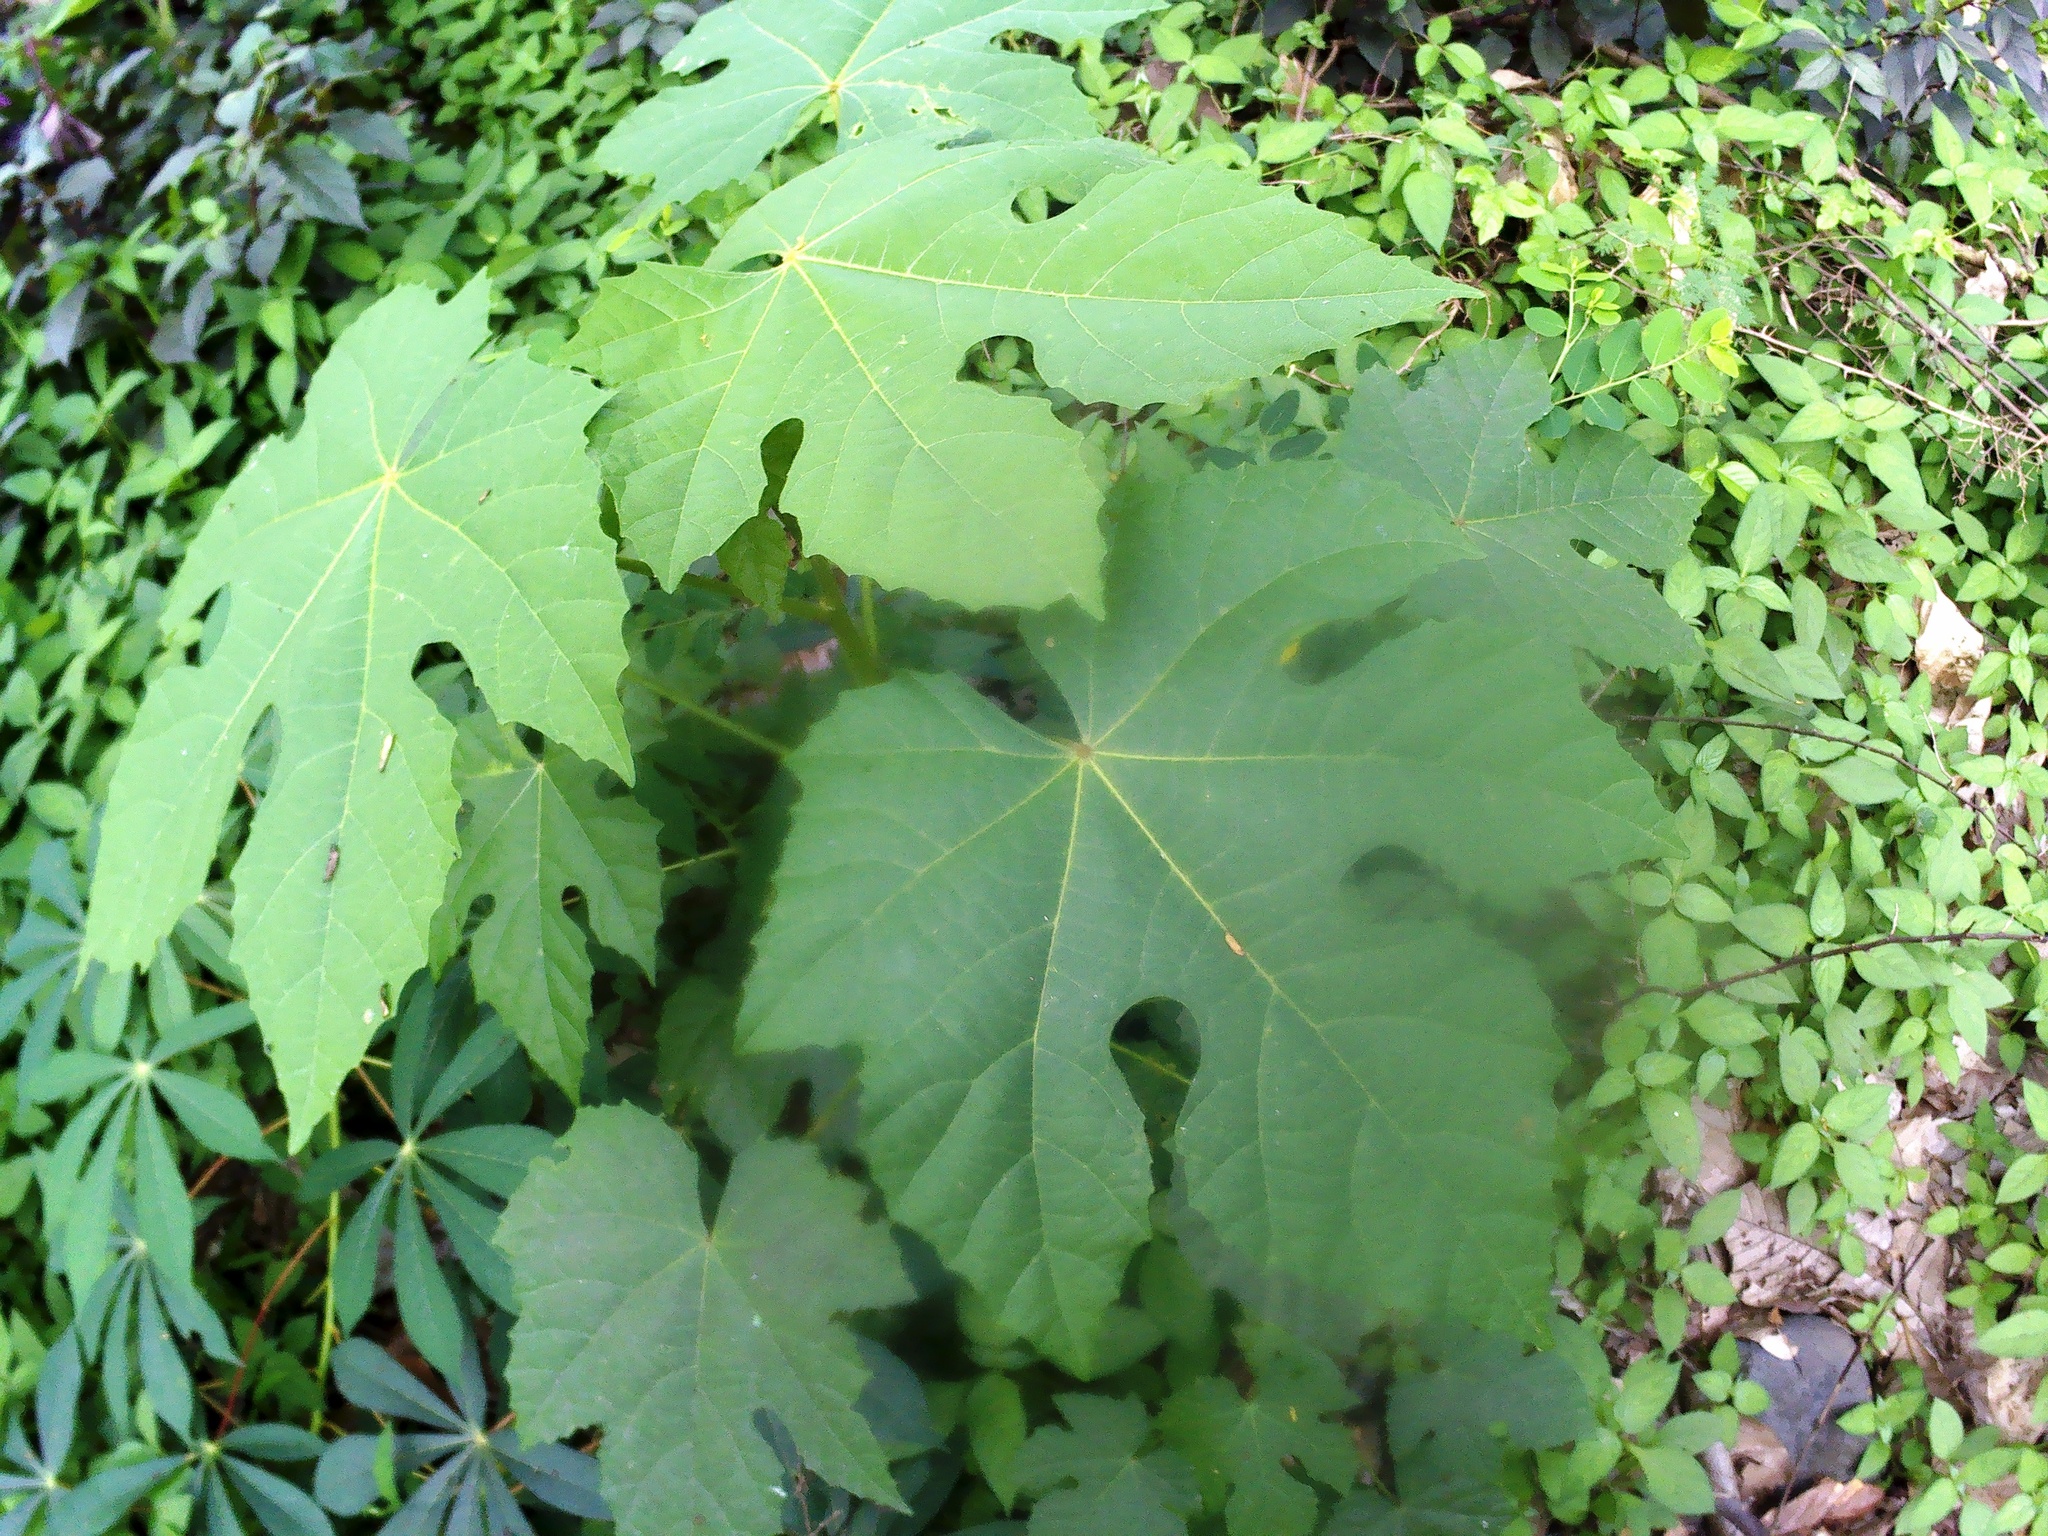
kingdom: Plantae
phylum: Tracheophyta
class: Magnoliopsida
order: Malpighiales
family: Euphorbiaceae
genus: Melanolepis
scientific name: Melanolepis multiglandulosa
